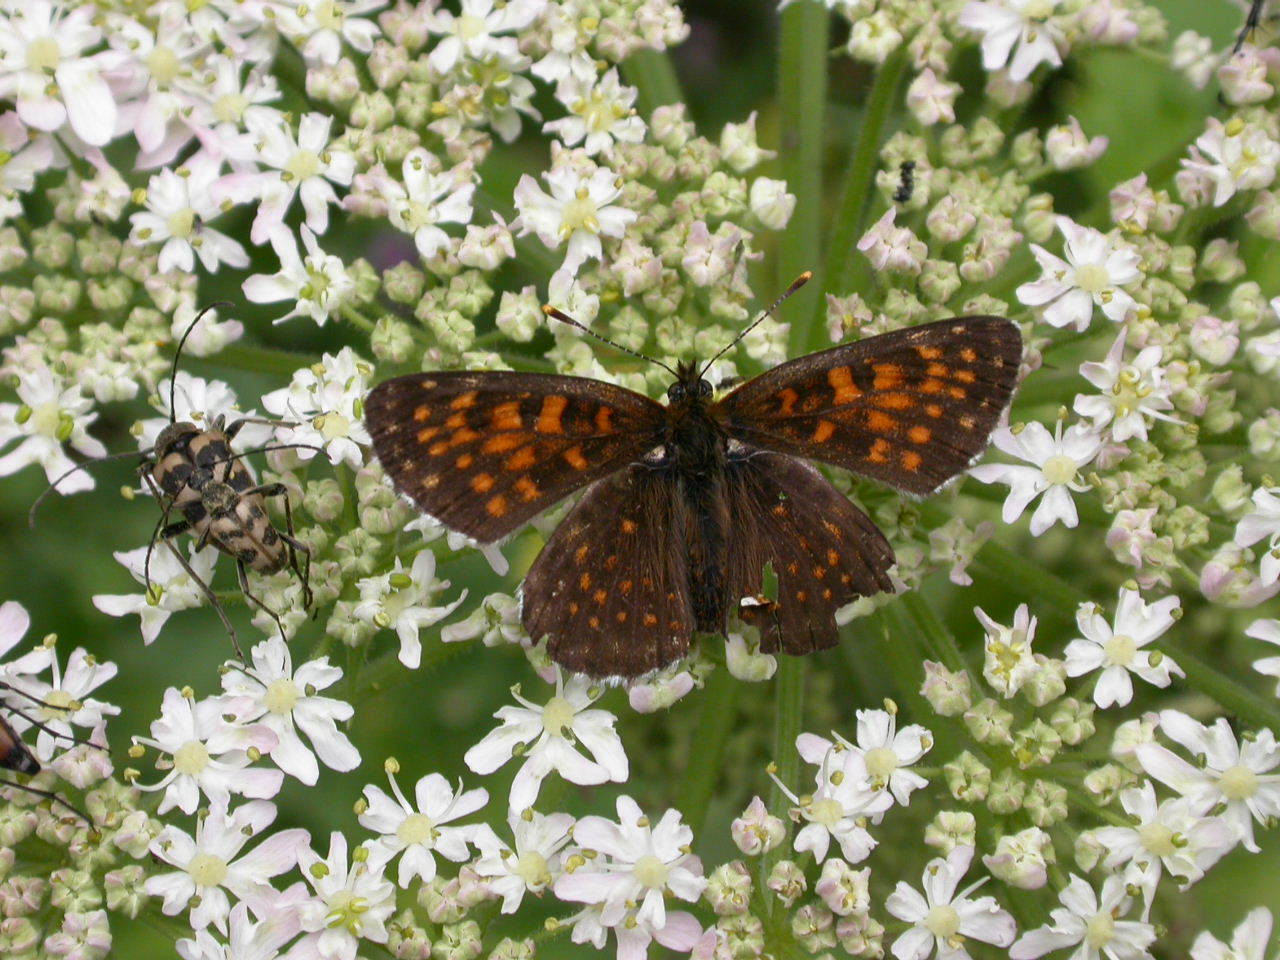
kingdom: Animalia
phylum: Arthropoda
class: Insecta
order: Lepidoptera
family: Nymphalidae
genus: Melitaea
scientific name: Melitaea diamina
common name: False heath fritillary
